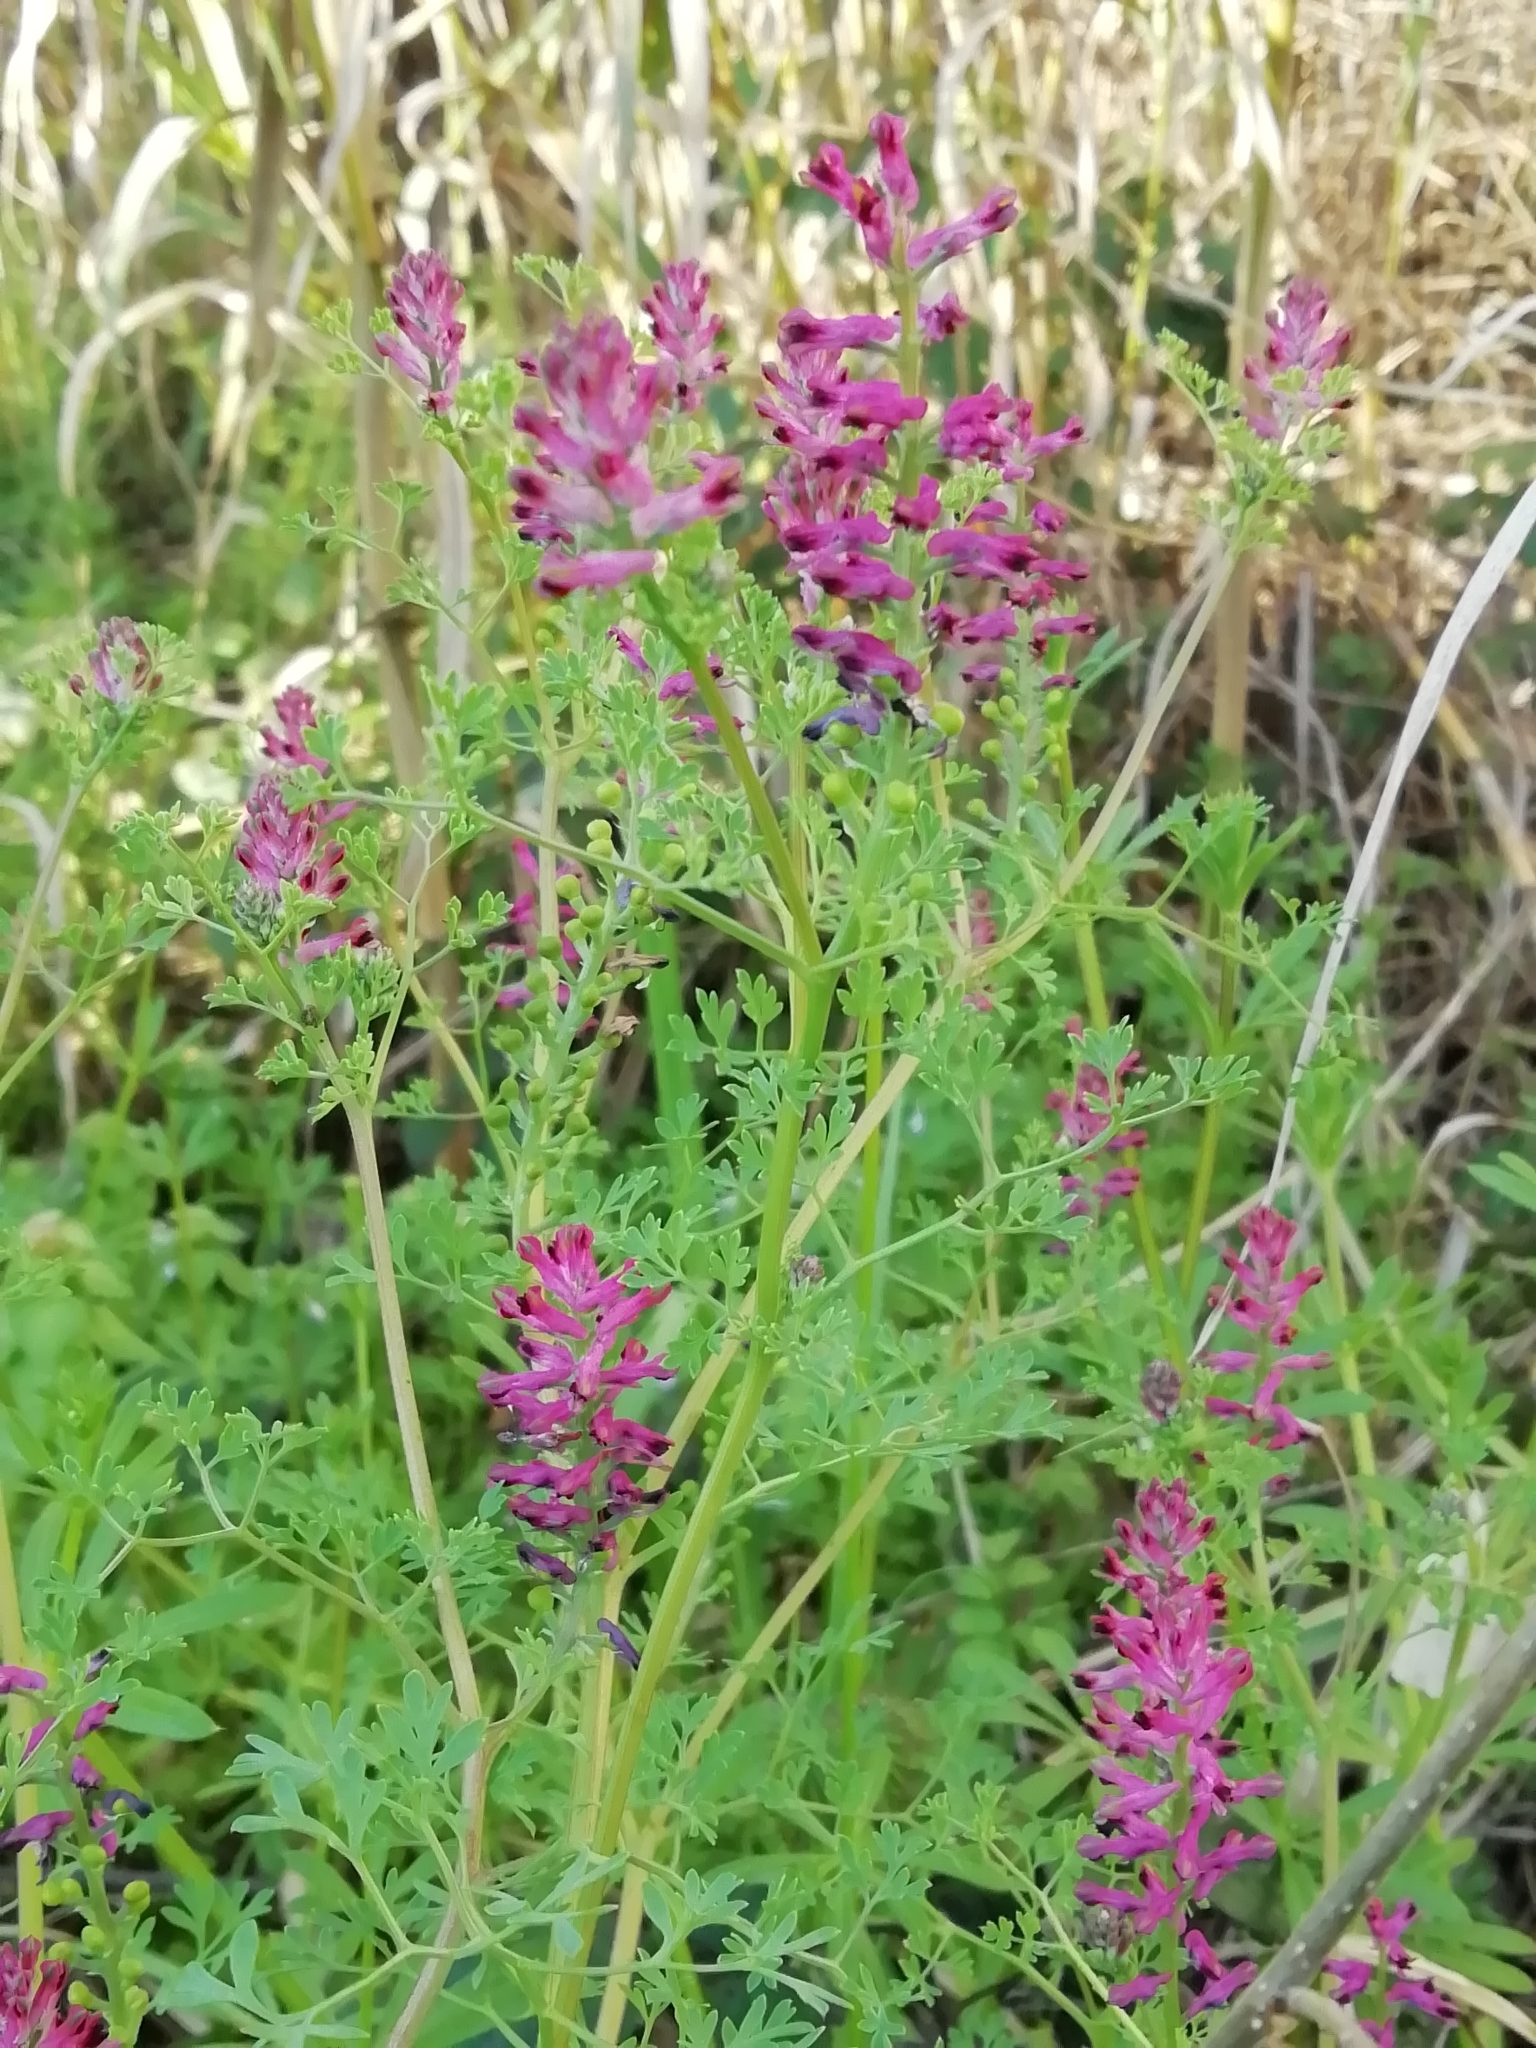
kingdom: Plantae
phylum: Tracheophyta
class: Magnoliopsida
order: Ranunculales
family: Papaveraceae
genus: Fumaria
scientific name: Fumaria officinalis
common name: Common fumitory
